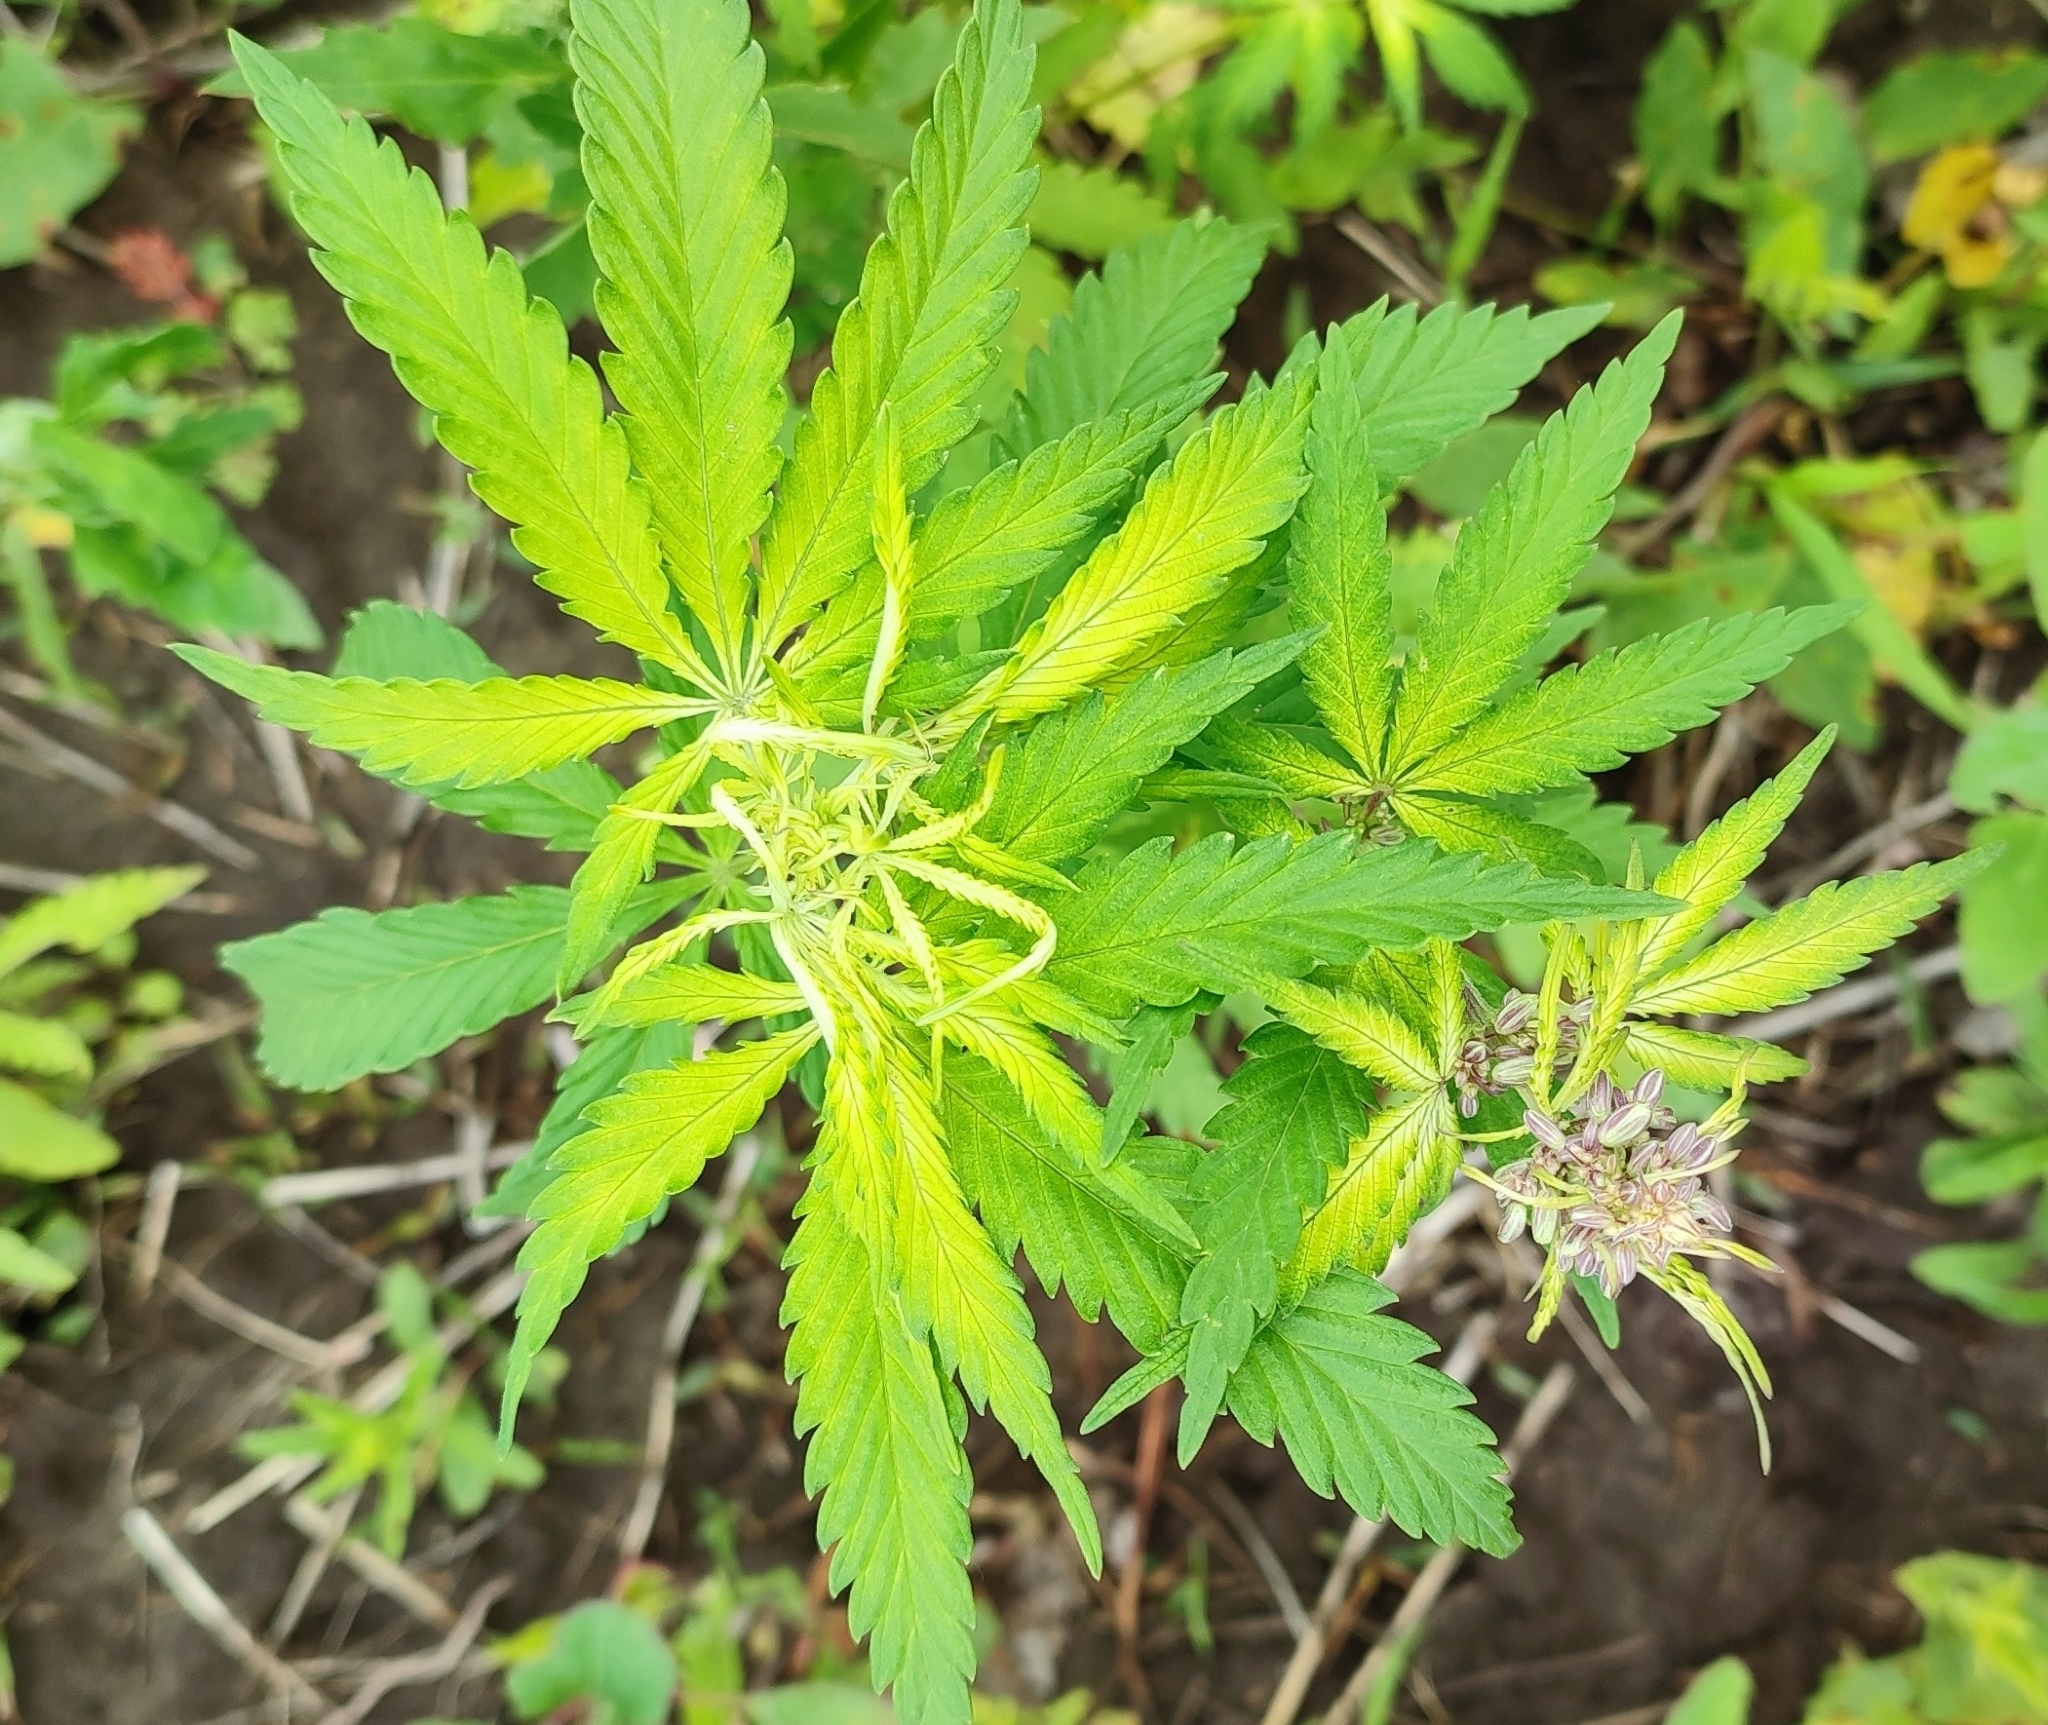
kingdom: Plantae
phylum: Tracheophyta
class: Magnoliopsida
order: Rosales
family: Cannabaceae
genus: Cannabis
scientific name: Cannabis sativa
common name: Hemp
